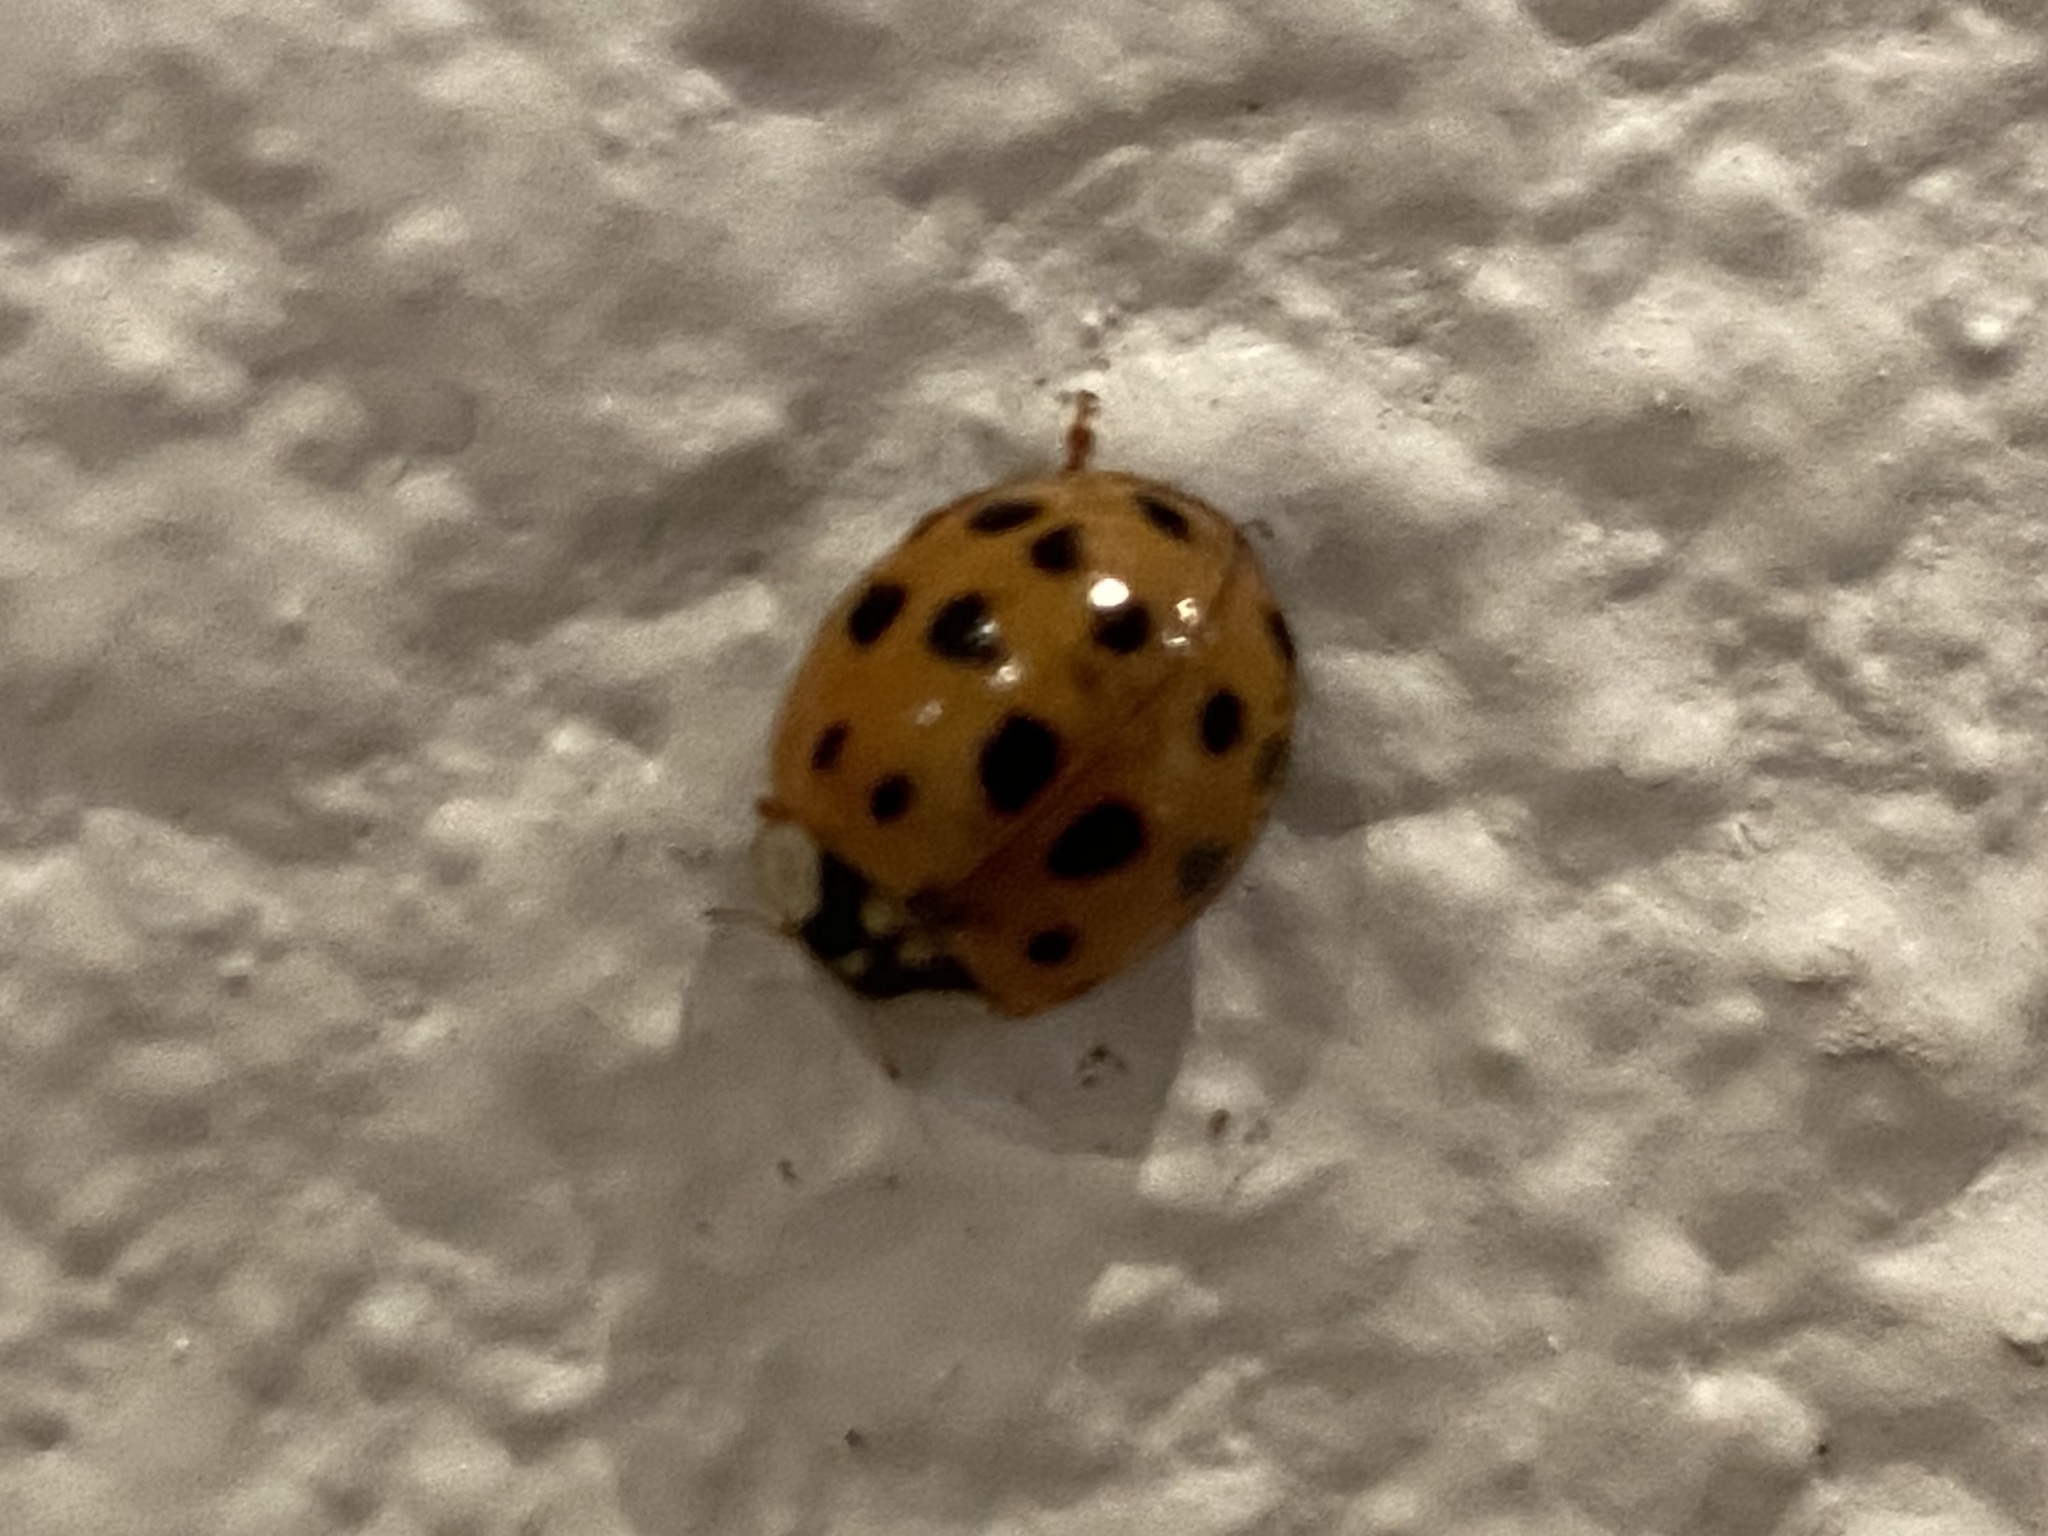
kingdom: Animalia
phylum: Arthropoda
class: Insecta
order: Coleoptera
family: Coccinellidae
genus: Harmonia
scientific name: Harmonia axyridis
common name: Harlequin ladybird
